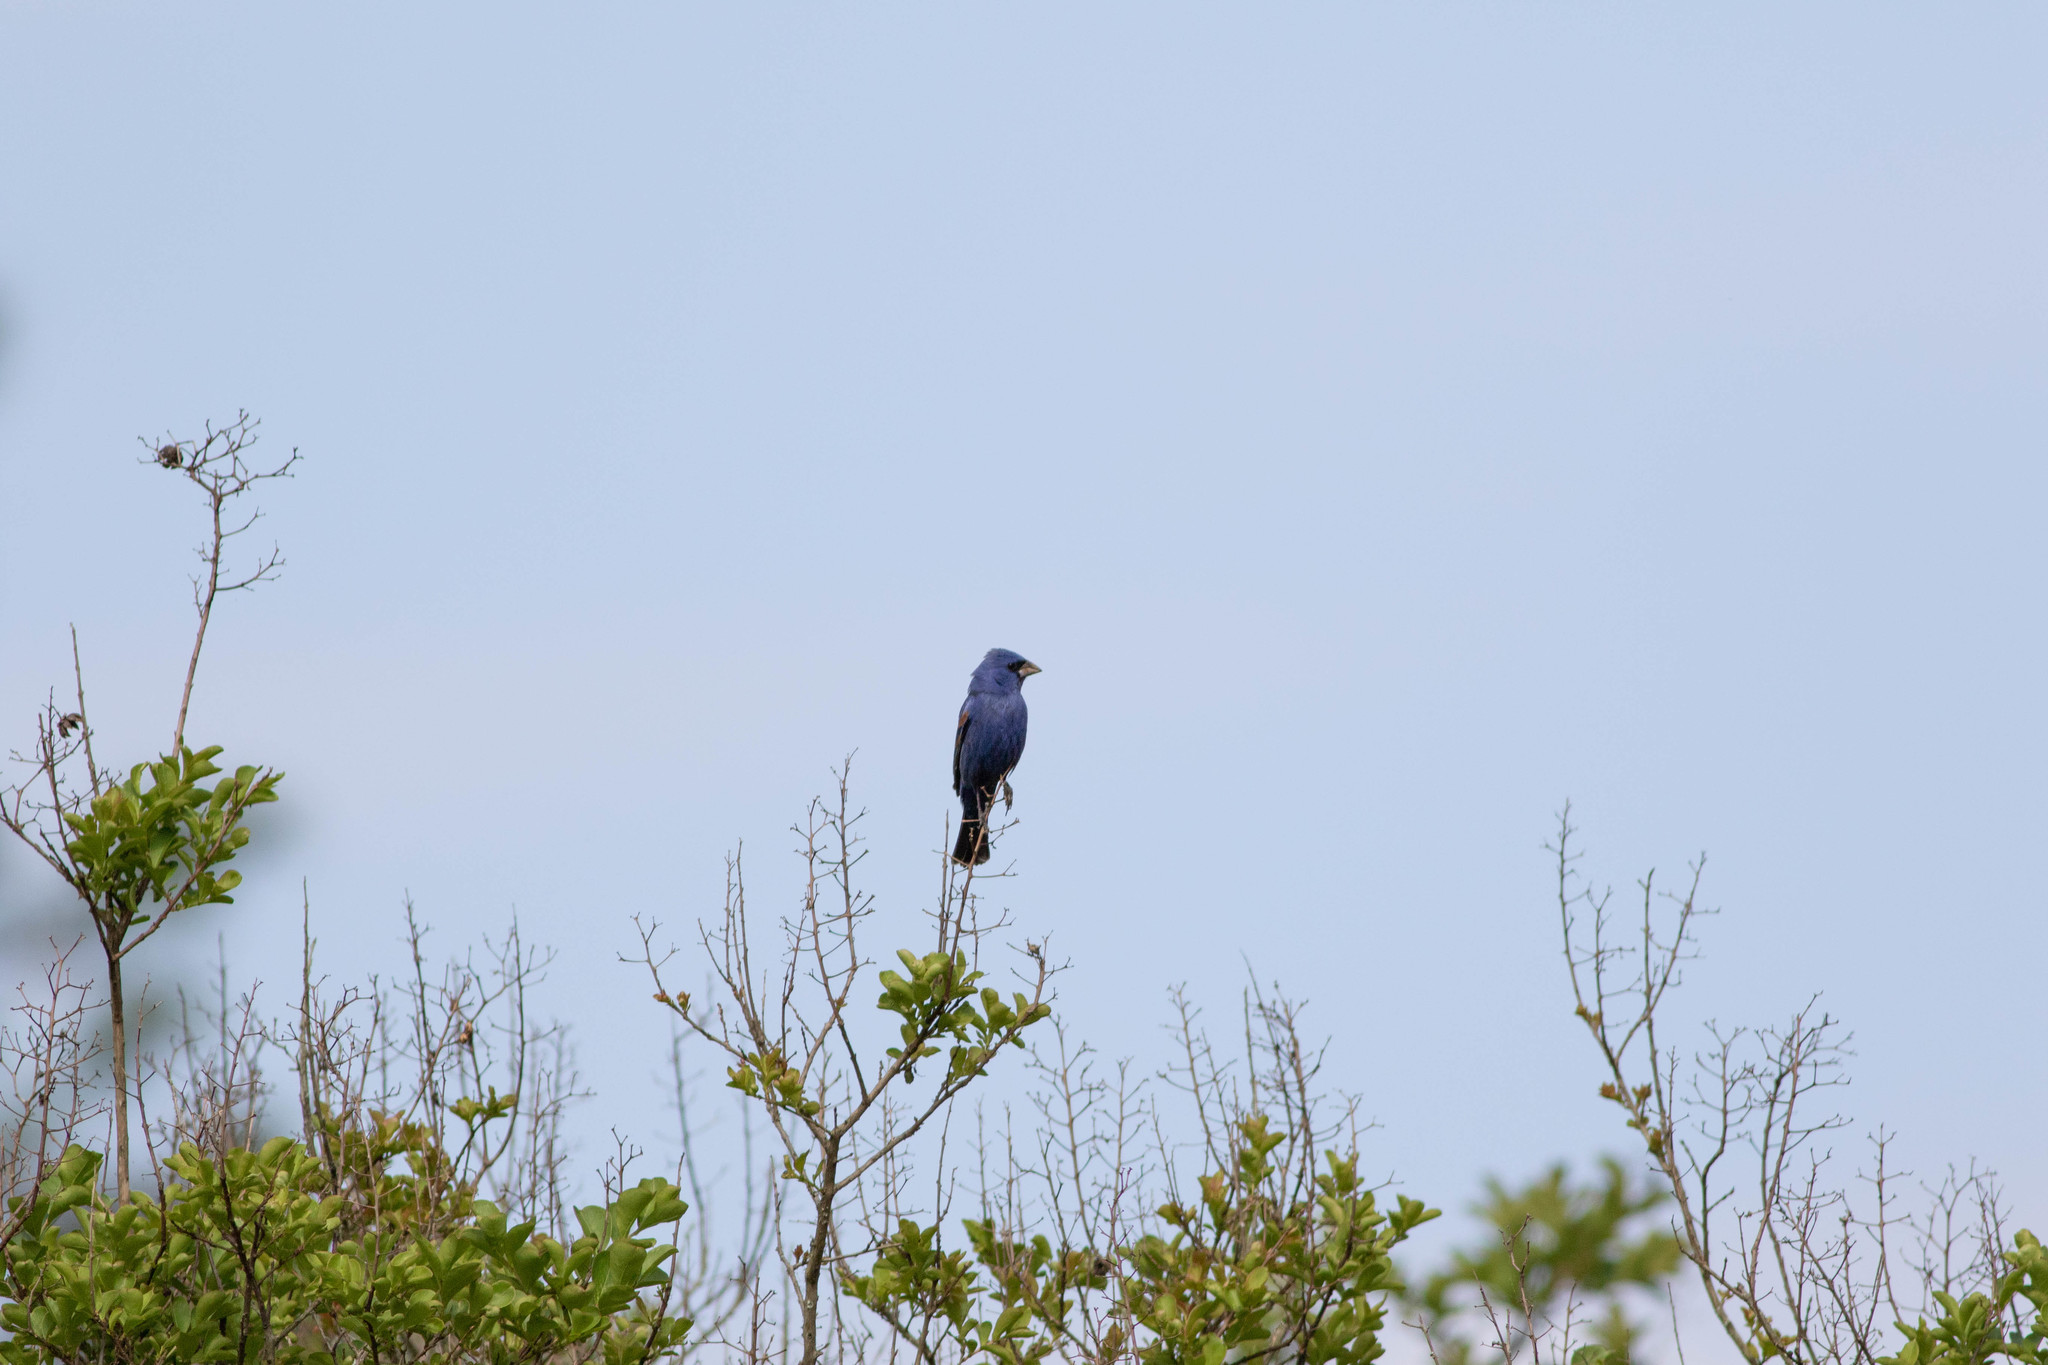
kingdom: Animalia
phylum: Chordata
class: Aves
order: Passeriformes
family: Cardinalidae
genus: Passerina
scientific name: Passerina caerulea
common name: Blue grosbeak
